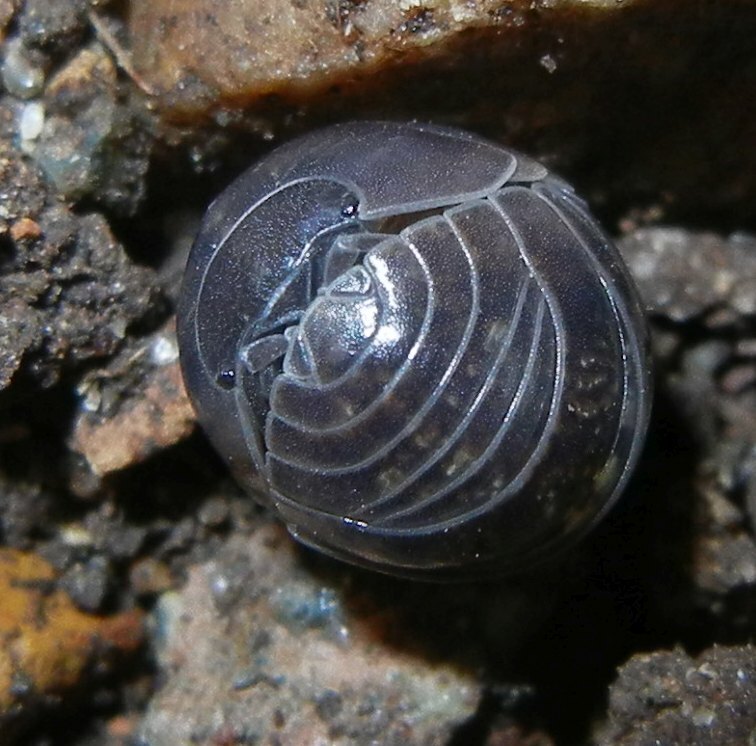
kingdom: Animalia
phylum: Arthropoda
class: Malacostraca
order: Isopoda
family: Armadillidiidae
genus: Armadillidium
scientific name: Armadillidium vulgare
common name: Common pill woodlouse
